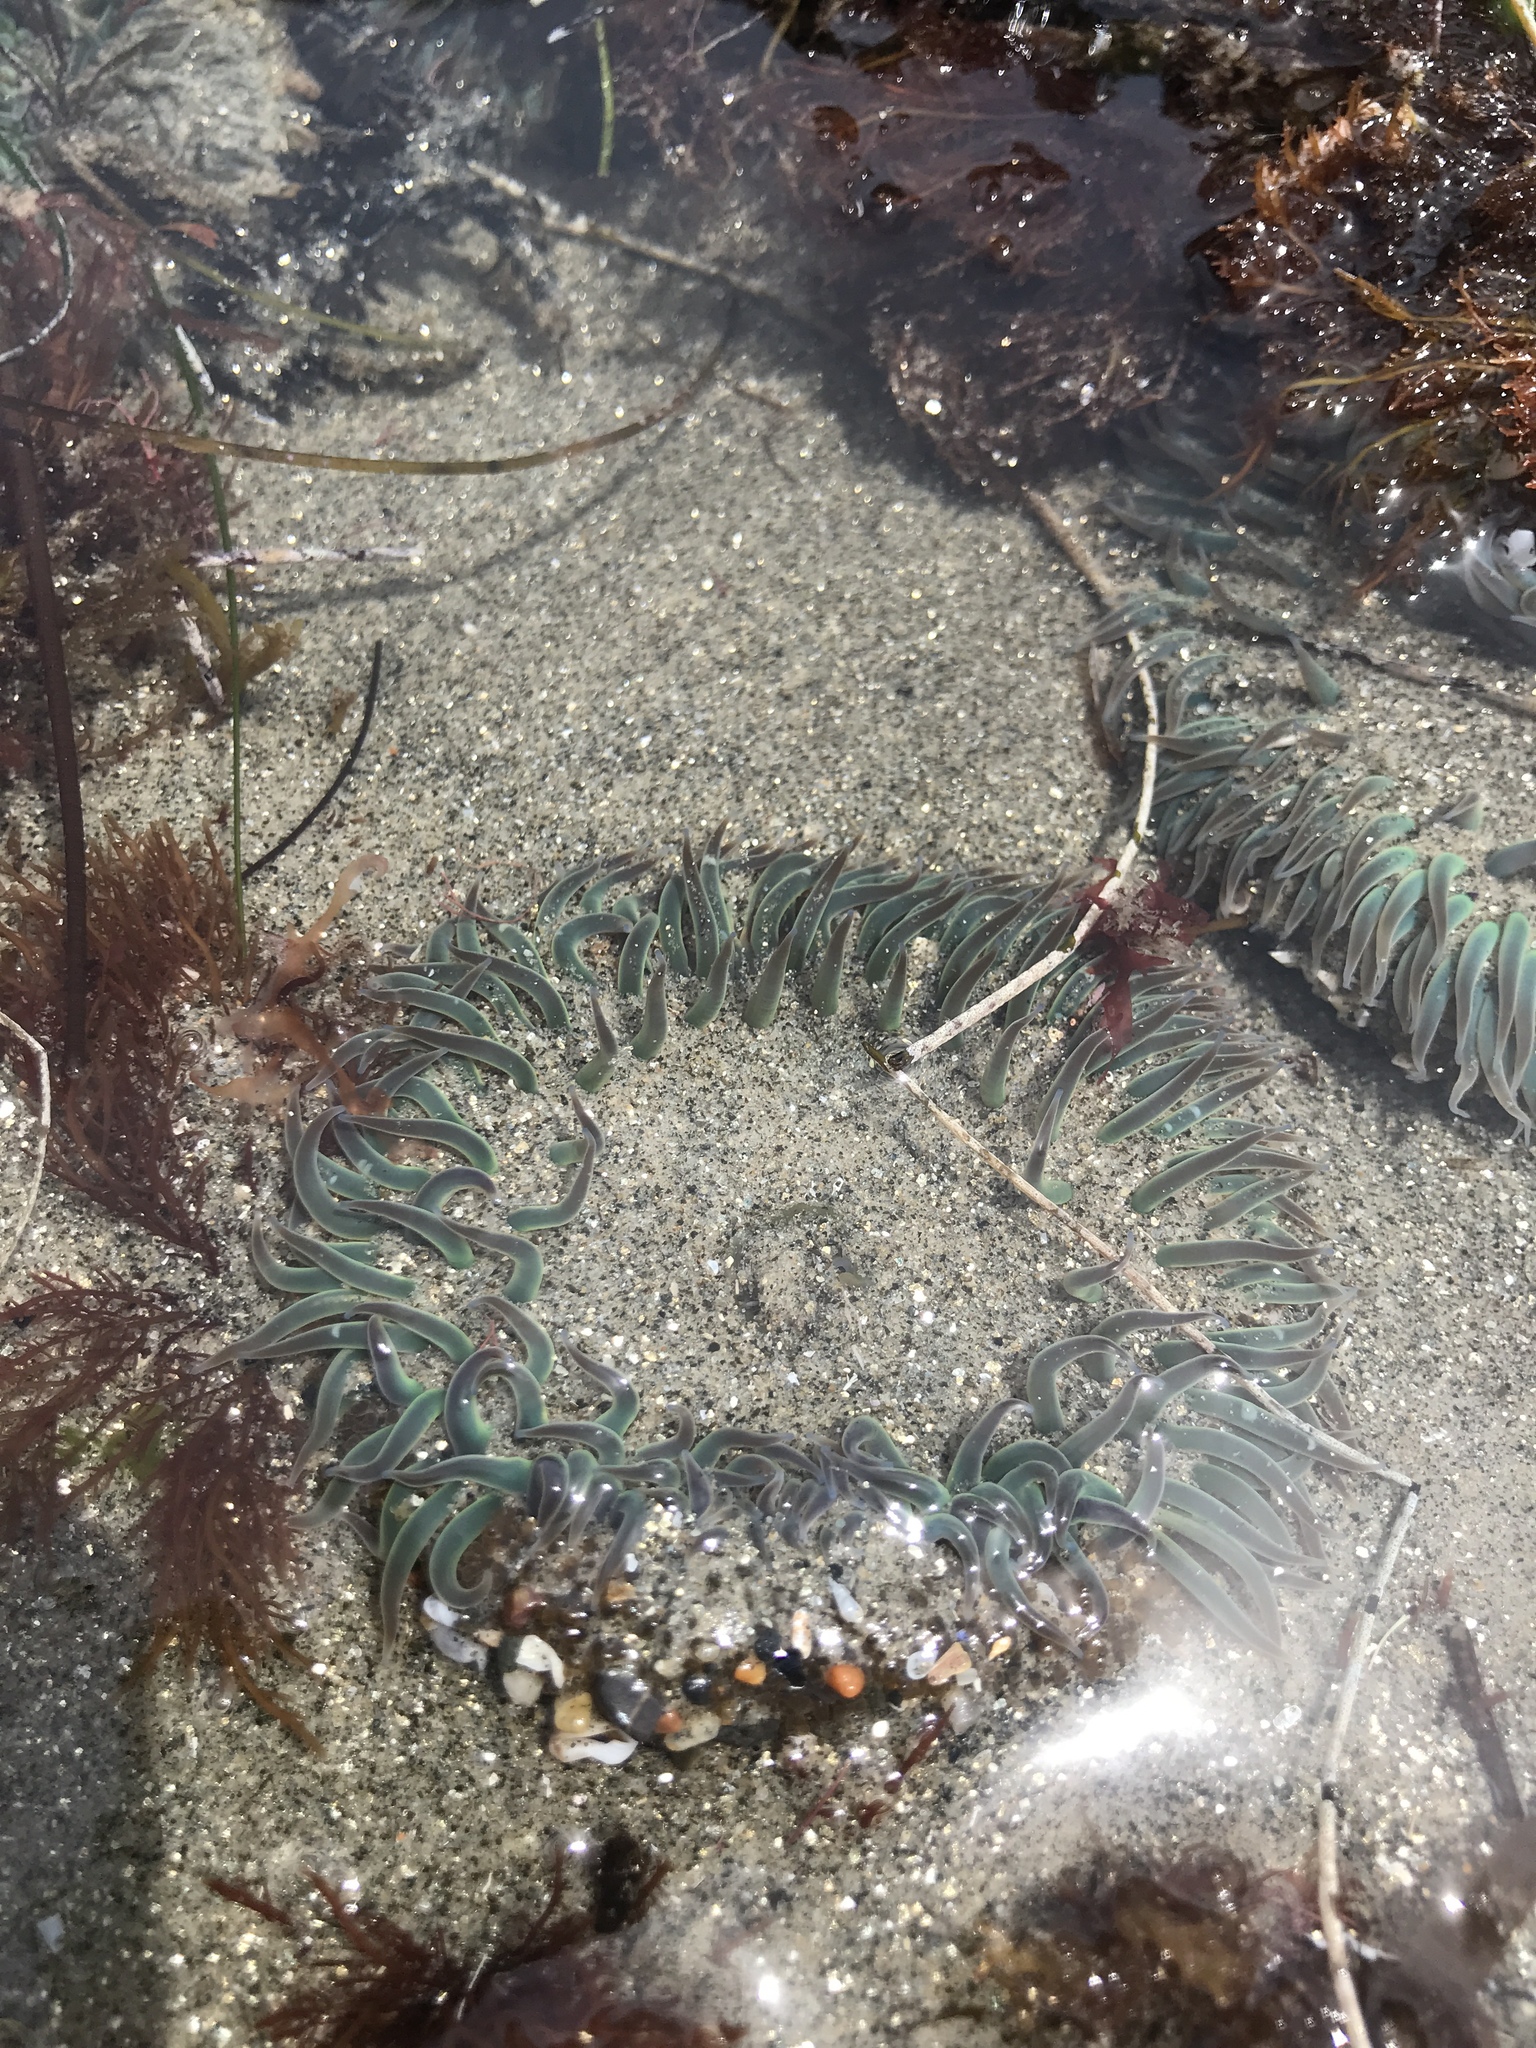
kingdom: Animalia
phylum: Cnidaria
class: Anthozoa
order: Actiniaria
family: Actiniidae
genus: Anthopleura
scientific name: Anthopleura sola
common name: Sun anemone
